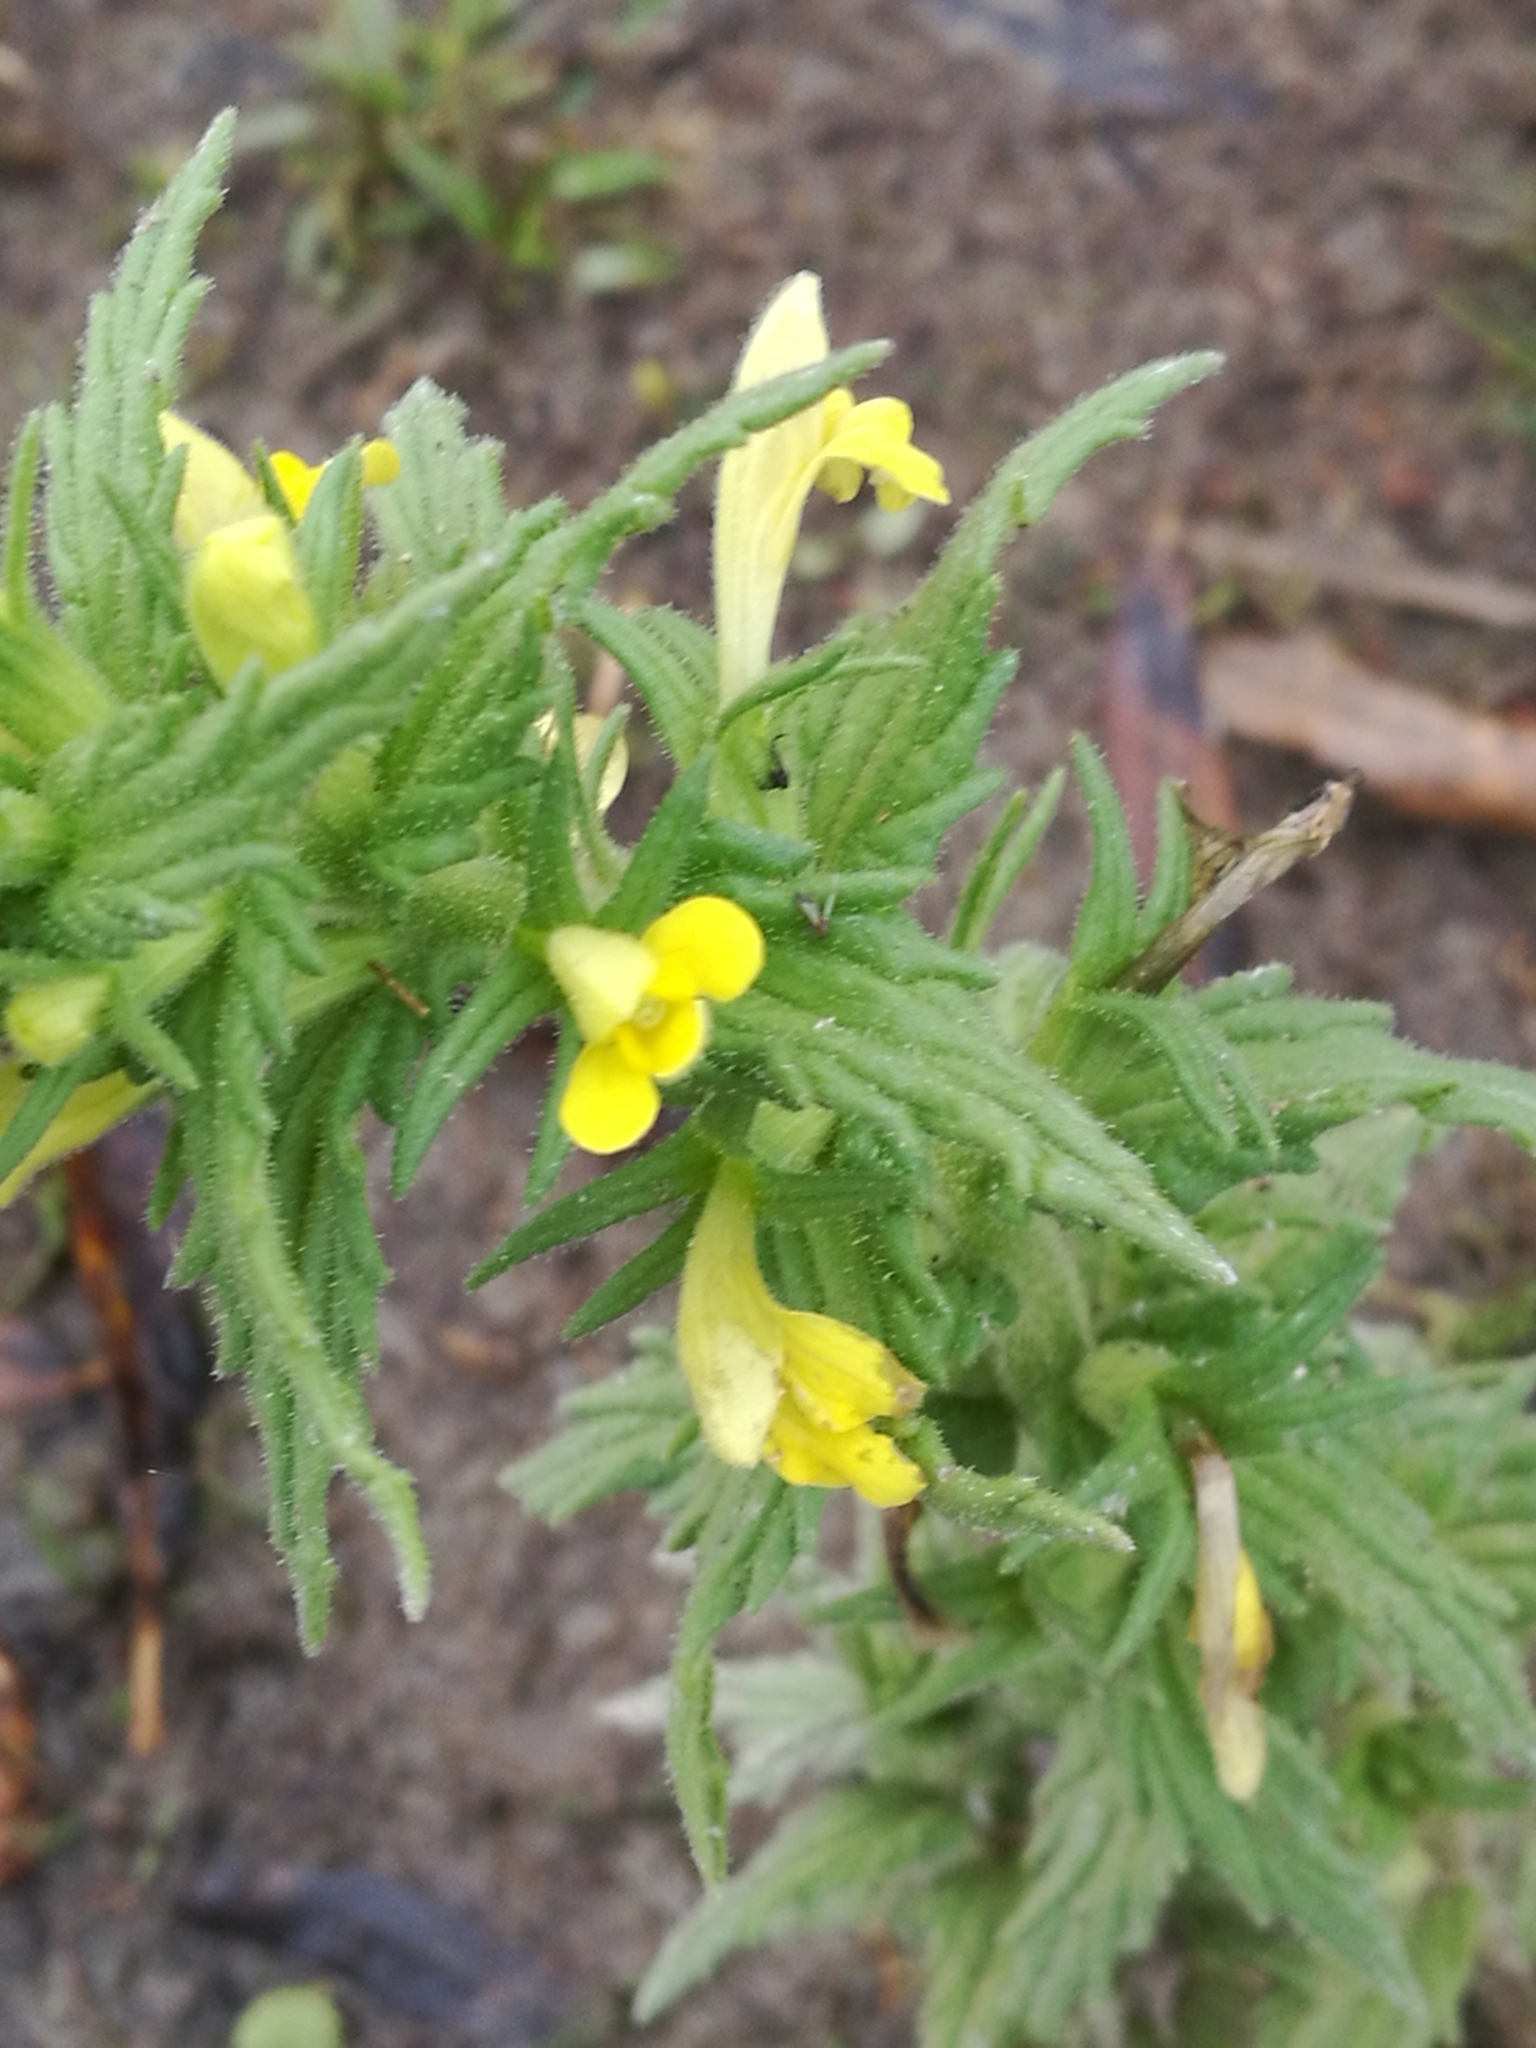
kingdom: Plantae
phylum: Tracheophyta
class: Magnoliopsida
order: Lamiales
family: Orobanchaceae
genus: Bellardia
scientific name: Bellardia viscosa
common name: Sticky parentucellia
